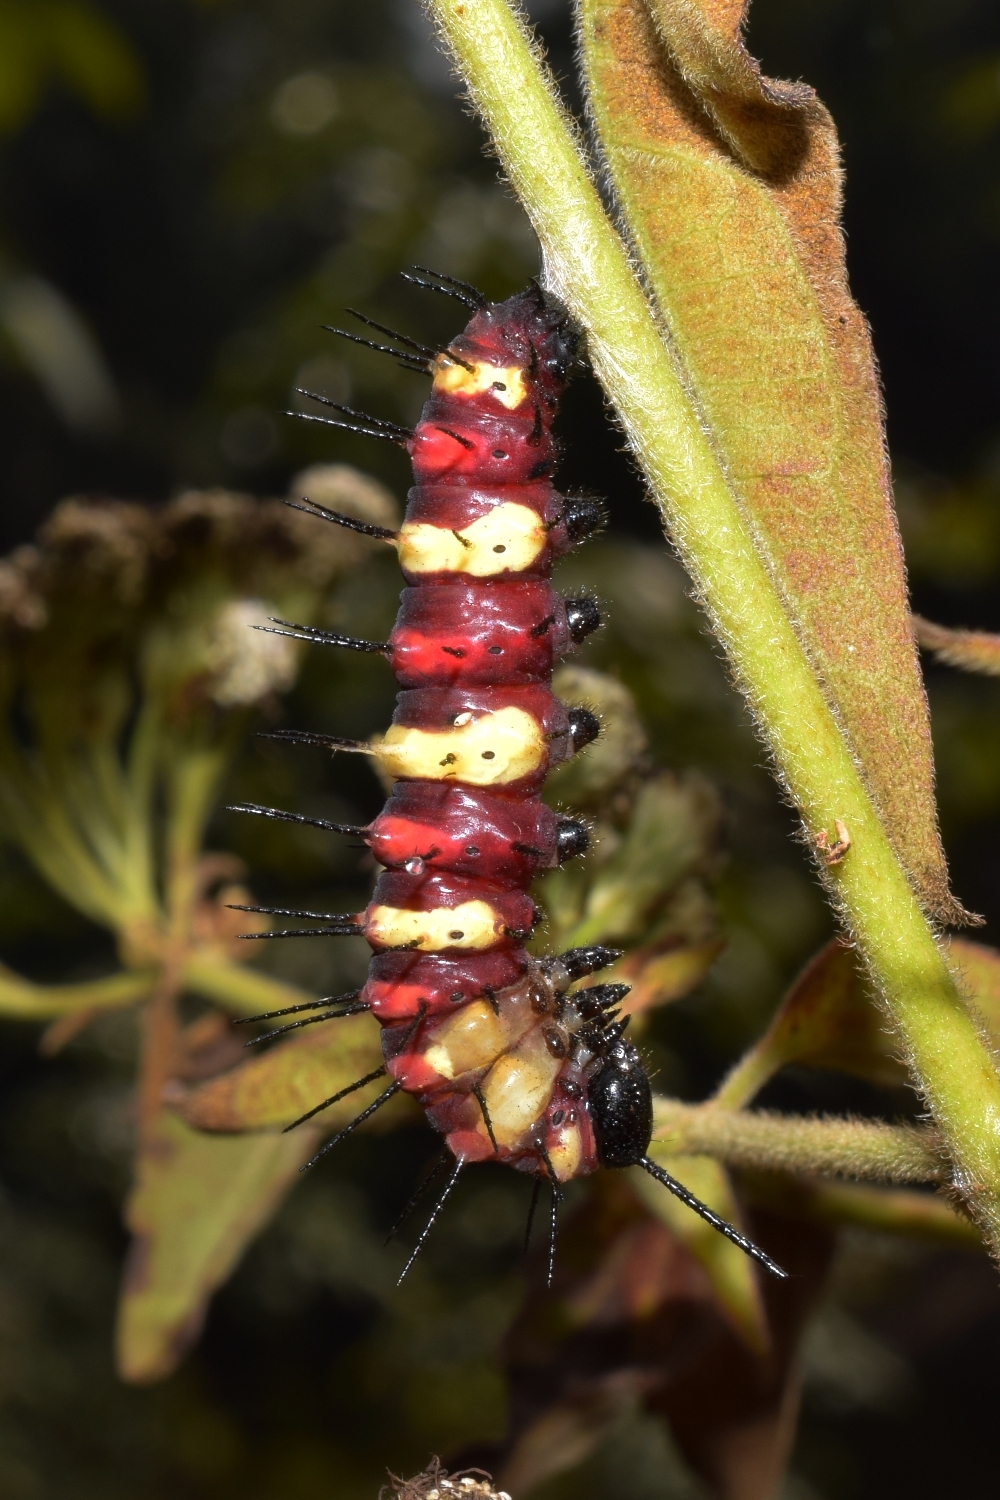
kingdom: Animalia
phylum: Arthropoda
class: Insecta
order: Lepidoptera
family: Nymphalidae
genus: Cethosia
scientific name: Cethosia cyane
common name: Leopard lacewing butterfly
